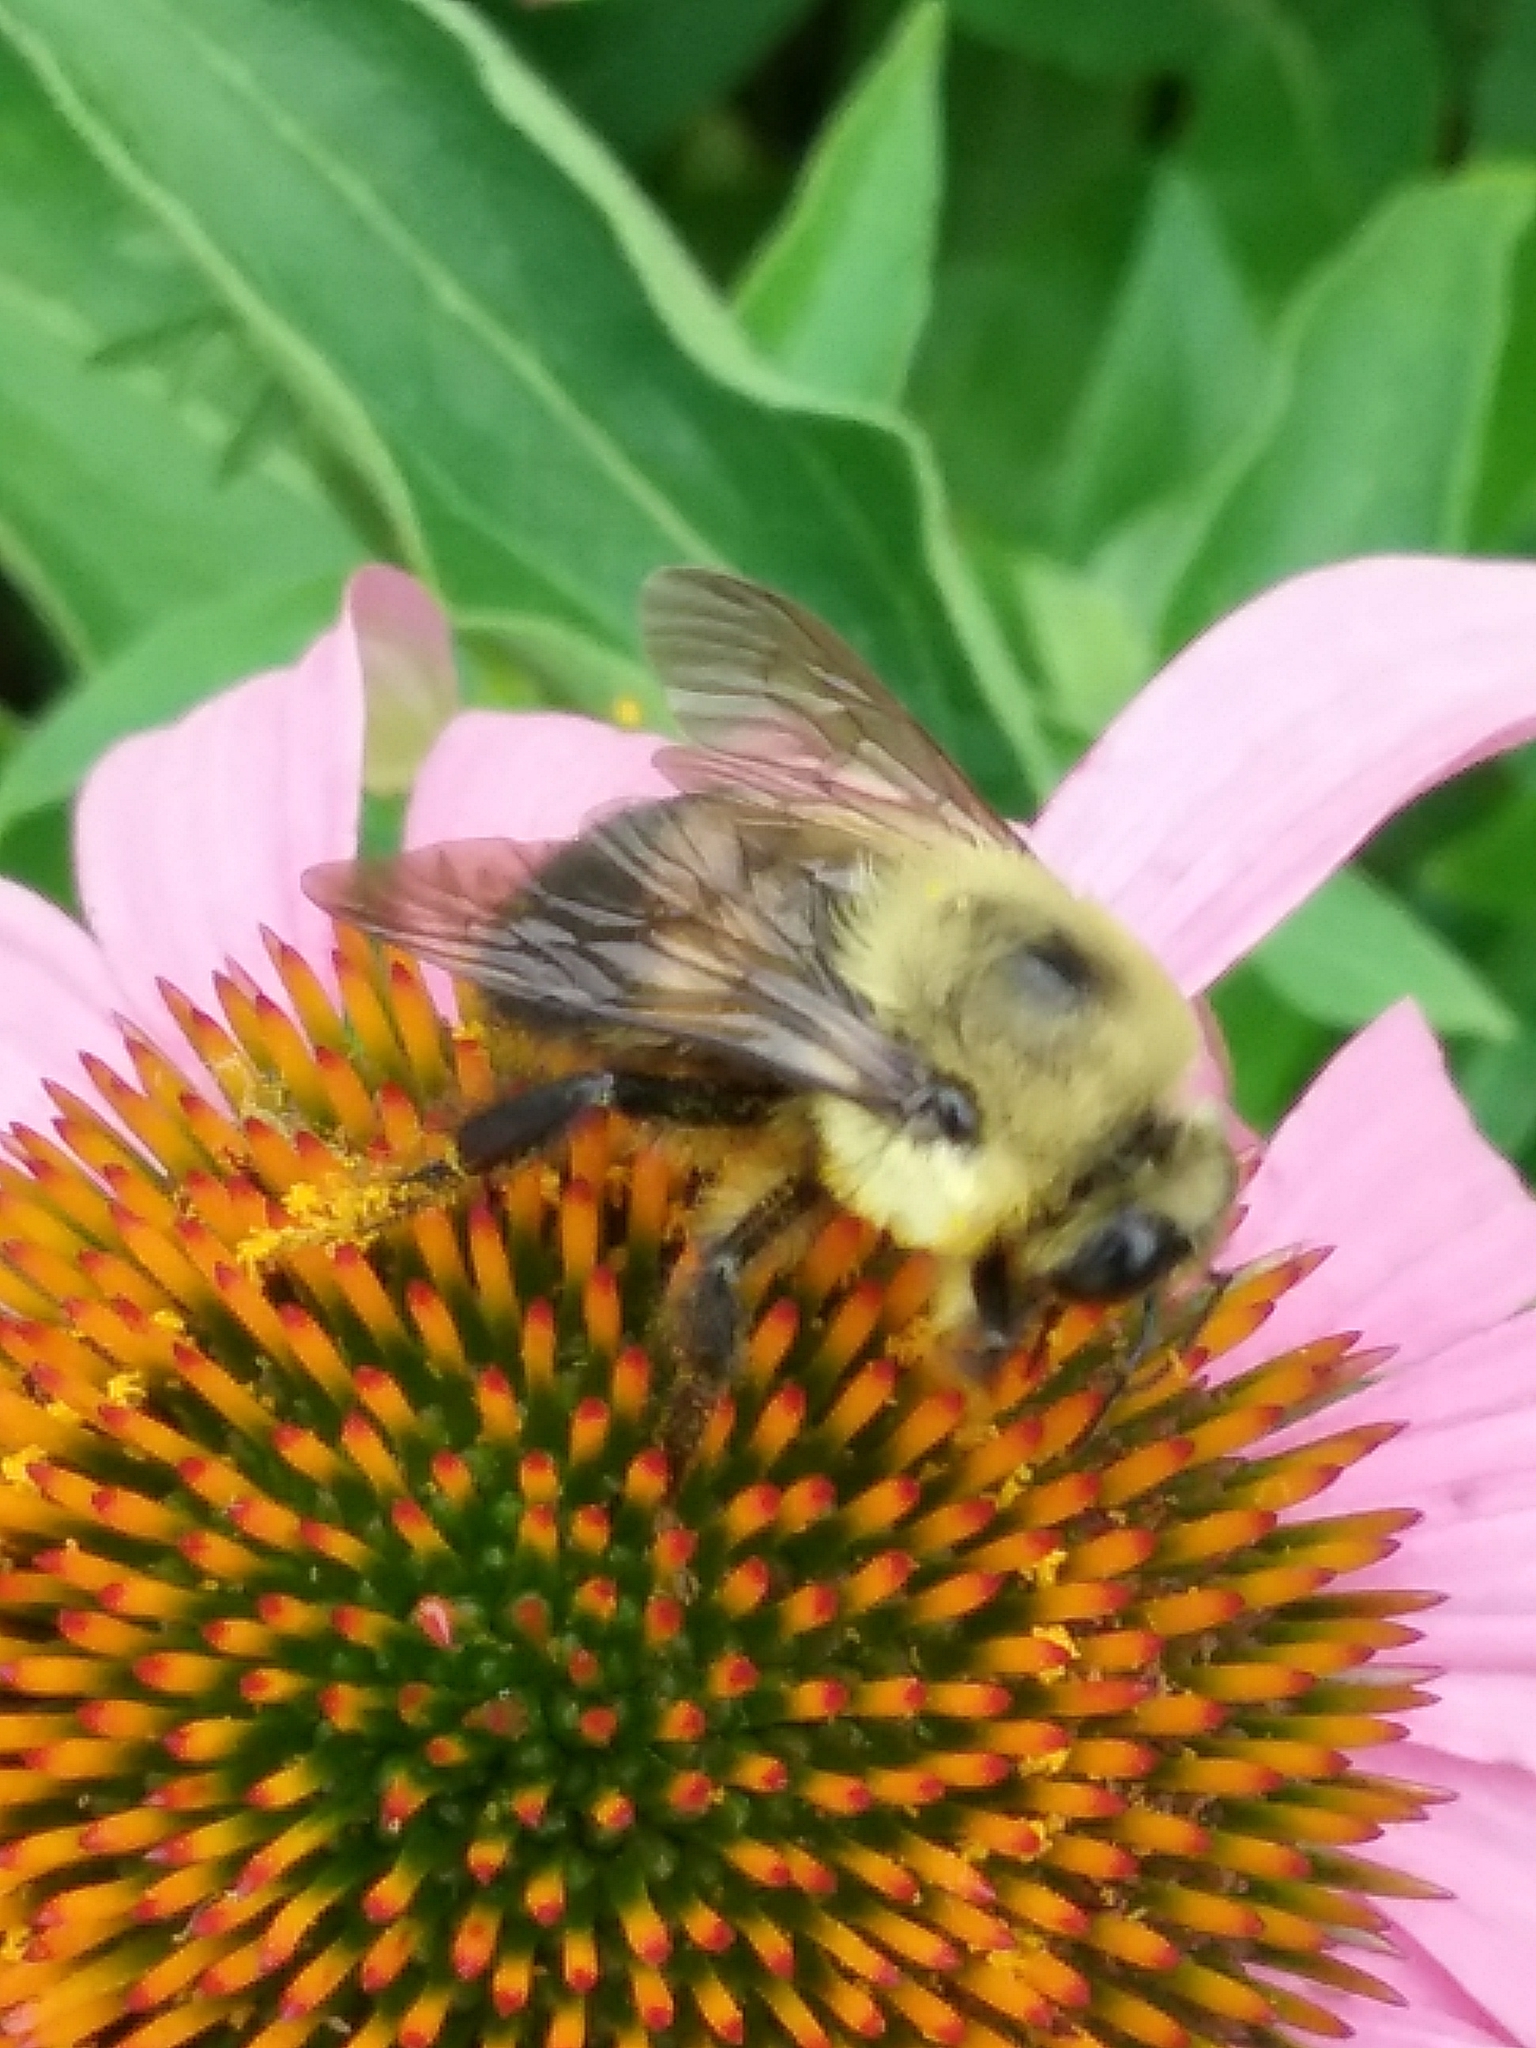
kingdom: Animalia
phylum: Arthropoda
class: Insecta
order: Hymenoptera
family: Apidae
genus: Bombus
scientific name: Bombus griseocollis
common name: Brown-belted bumble bee
